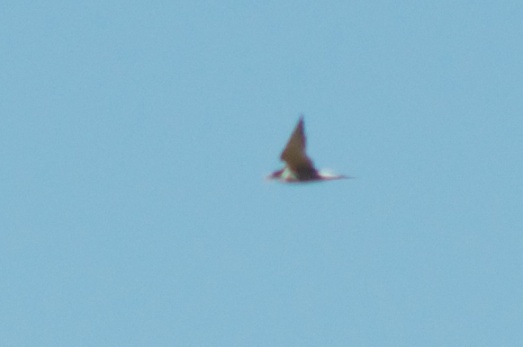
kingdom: Animalia
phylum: Chordata
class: Aves
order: Charadriiformes
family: Laridae
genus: Chlidonias
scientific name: Chlidonias albostriatus
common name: Black-fronted tern
